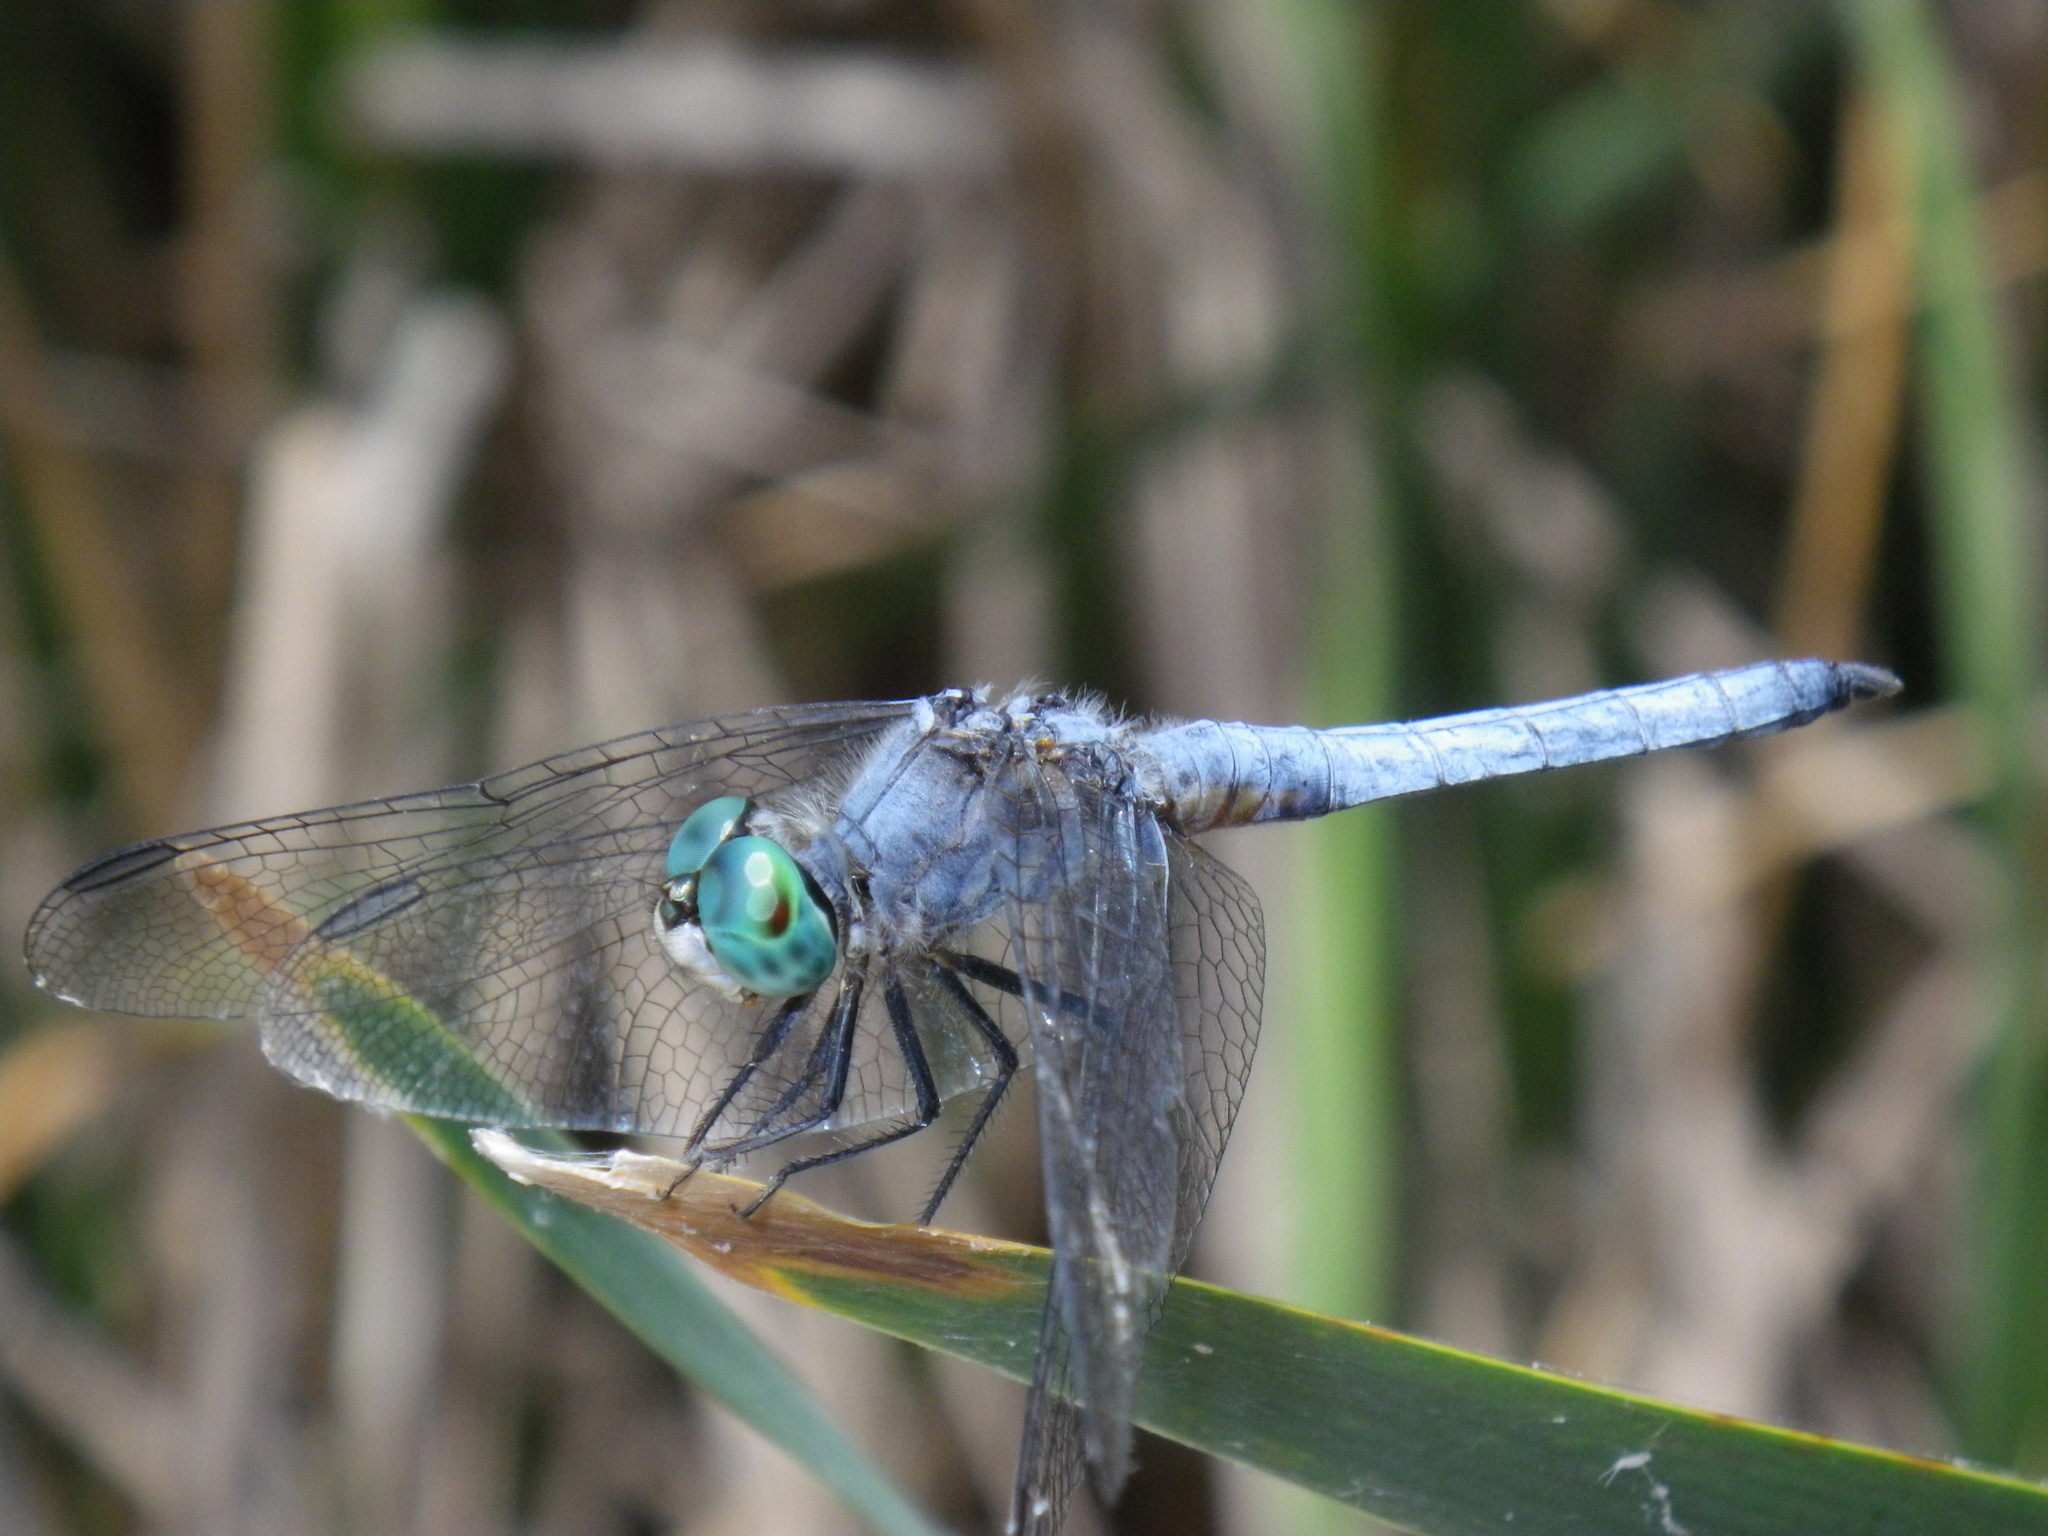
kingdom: Animalia
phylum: Arthropoda
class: Insecta
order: Odonata
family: Libellulidae
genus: Pachydiplax
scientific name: Pachydiplax longipennis
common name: Blue dasher
